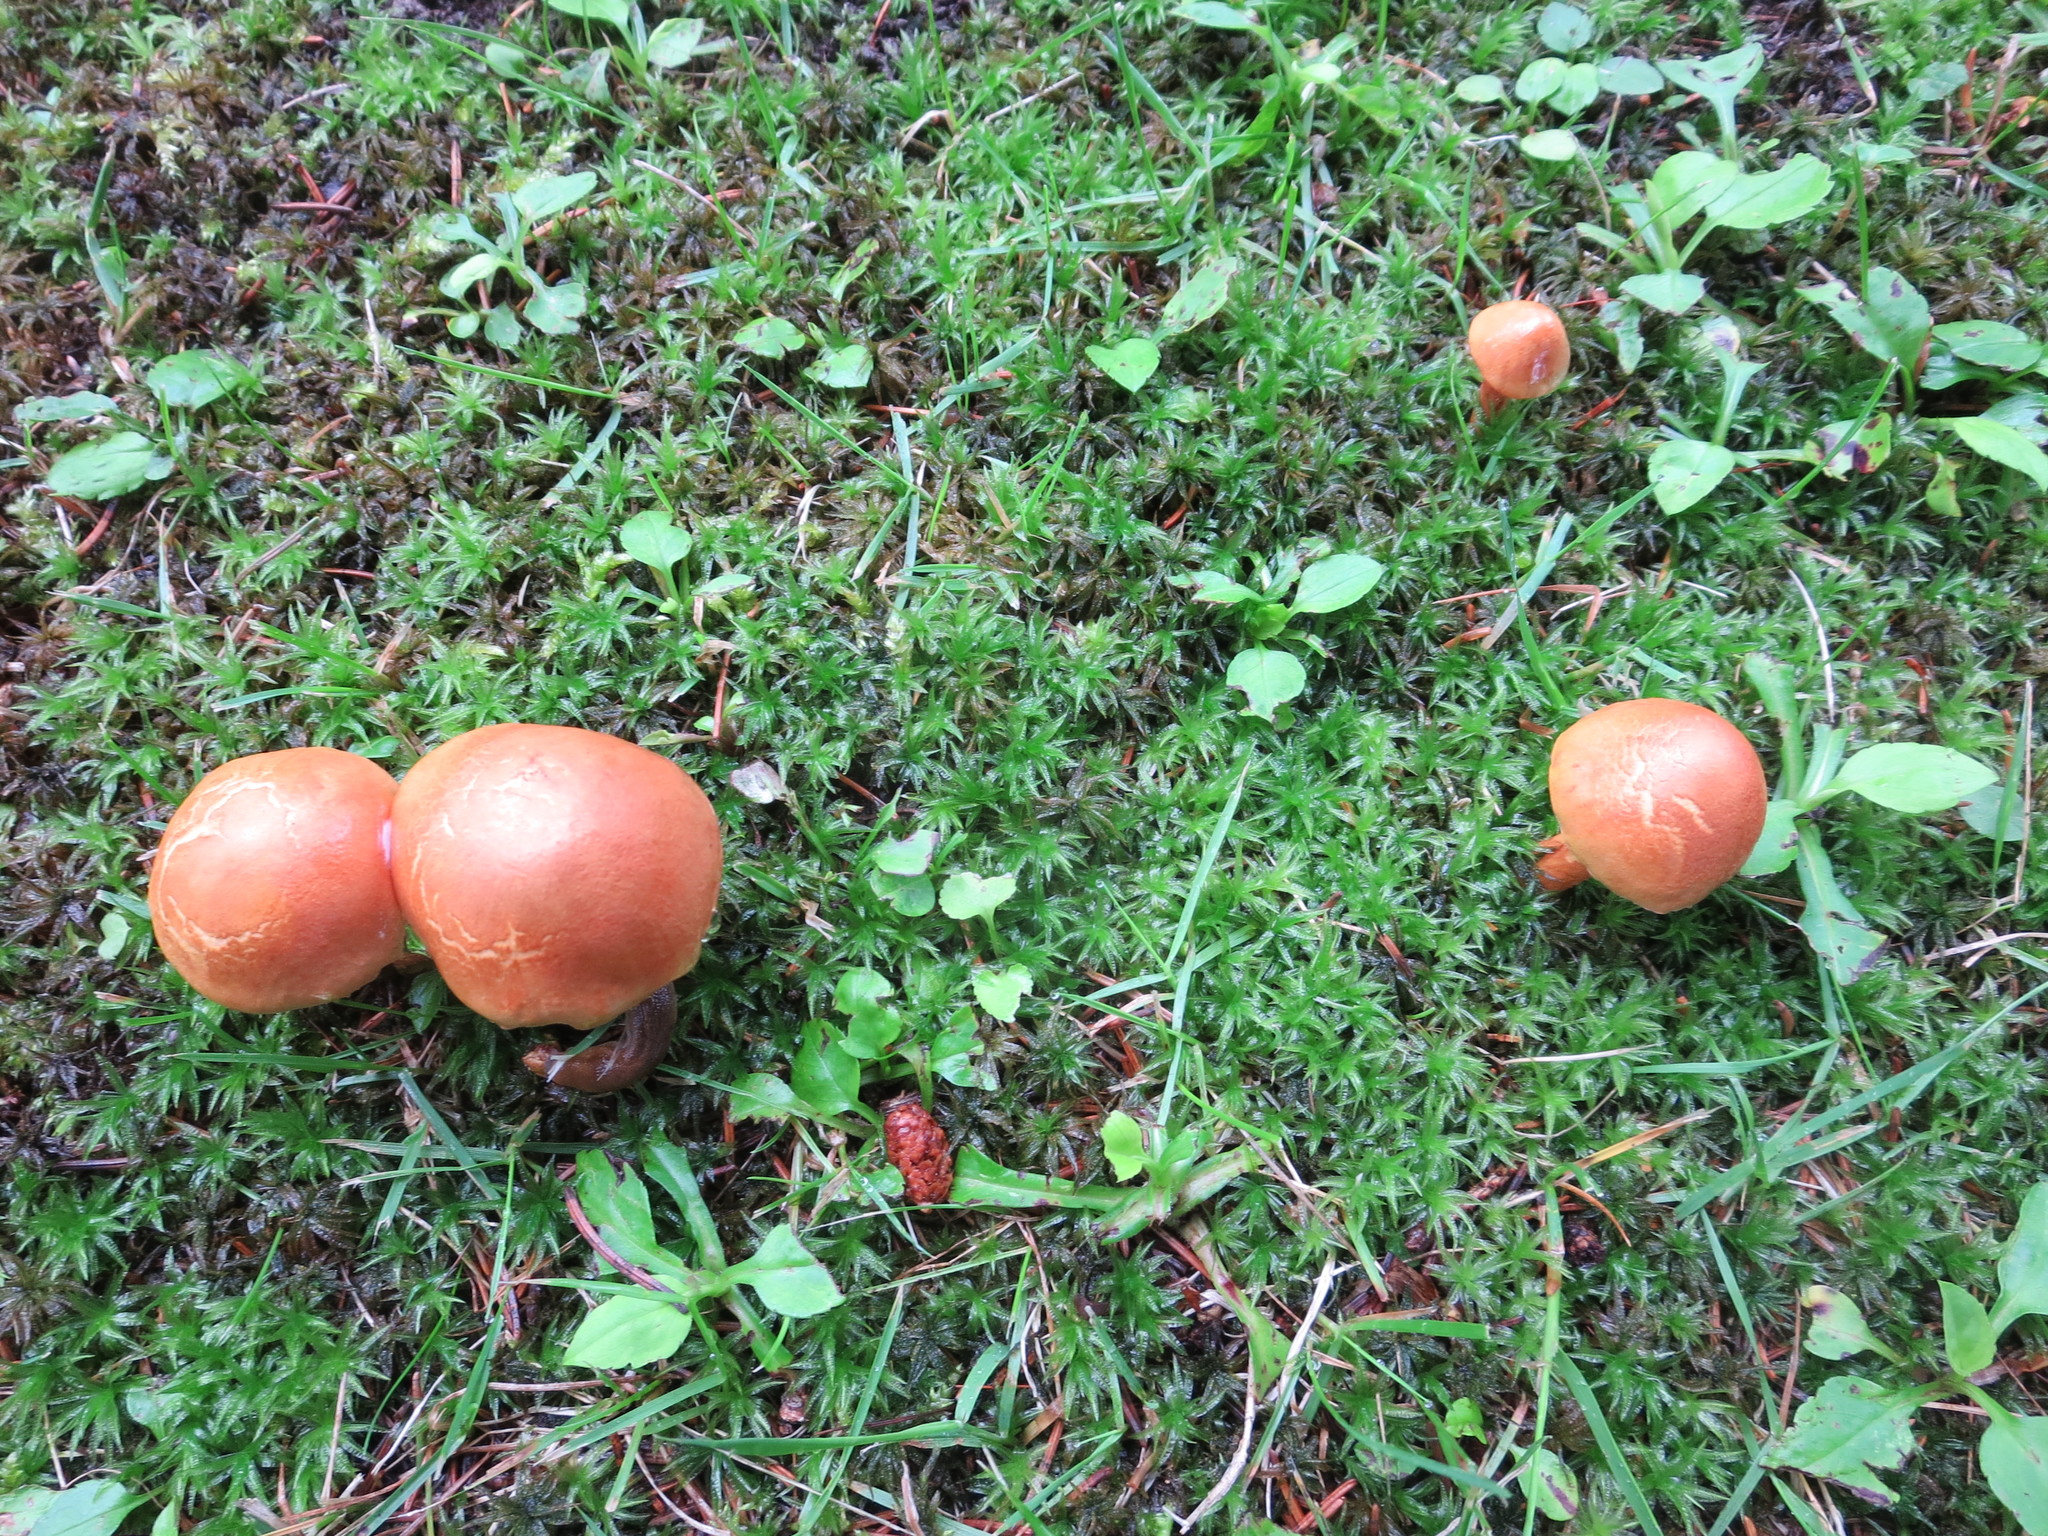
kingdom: Fungi
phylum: Basidiomycota
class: Agaricomycetes
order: Boletales
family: Boletaceae
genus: Chalciporus
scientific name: Chalciporus piperatus
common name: Peppery bolete
